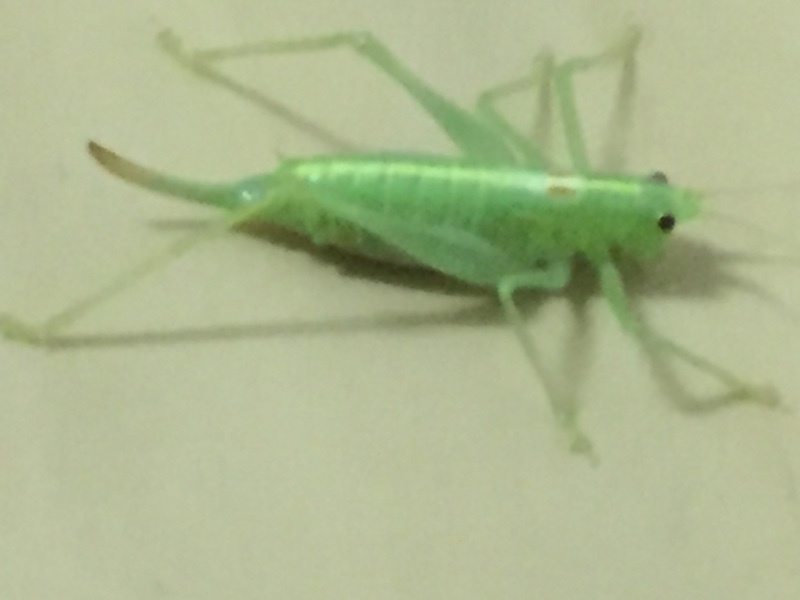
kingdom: Animalia
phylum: Arthropoda
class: Insecta
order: Orthoptera
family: Tettigoniidae
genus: Meconema
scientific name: Meconema meridionale
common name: Southern oak bush-cricket
